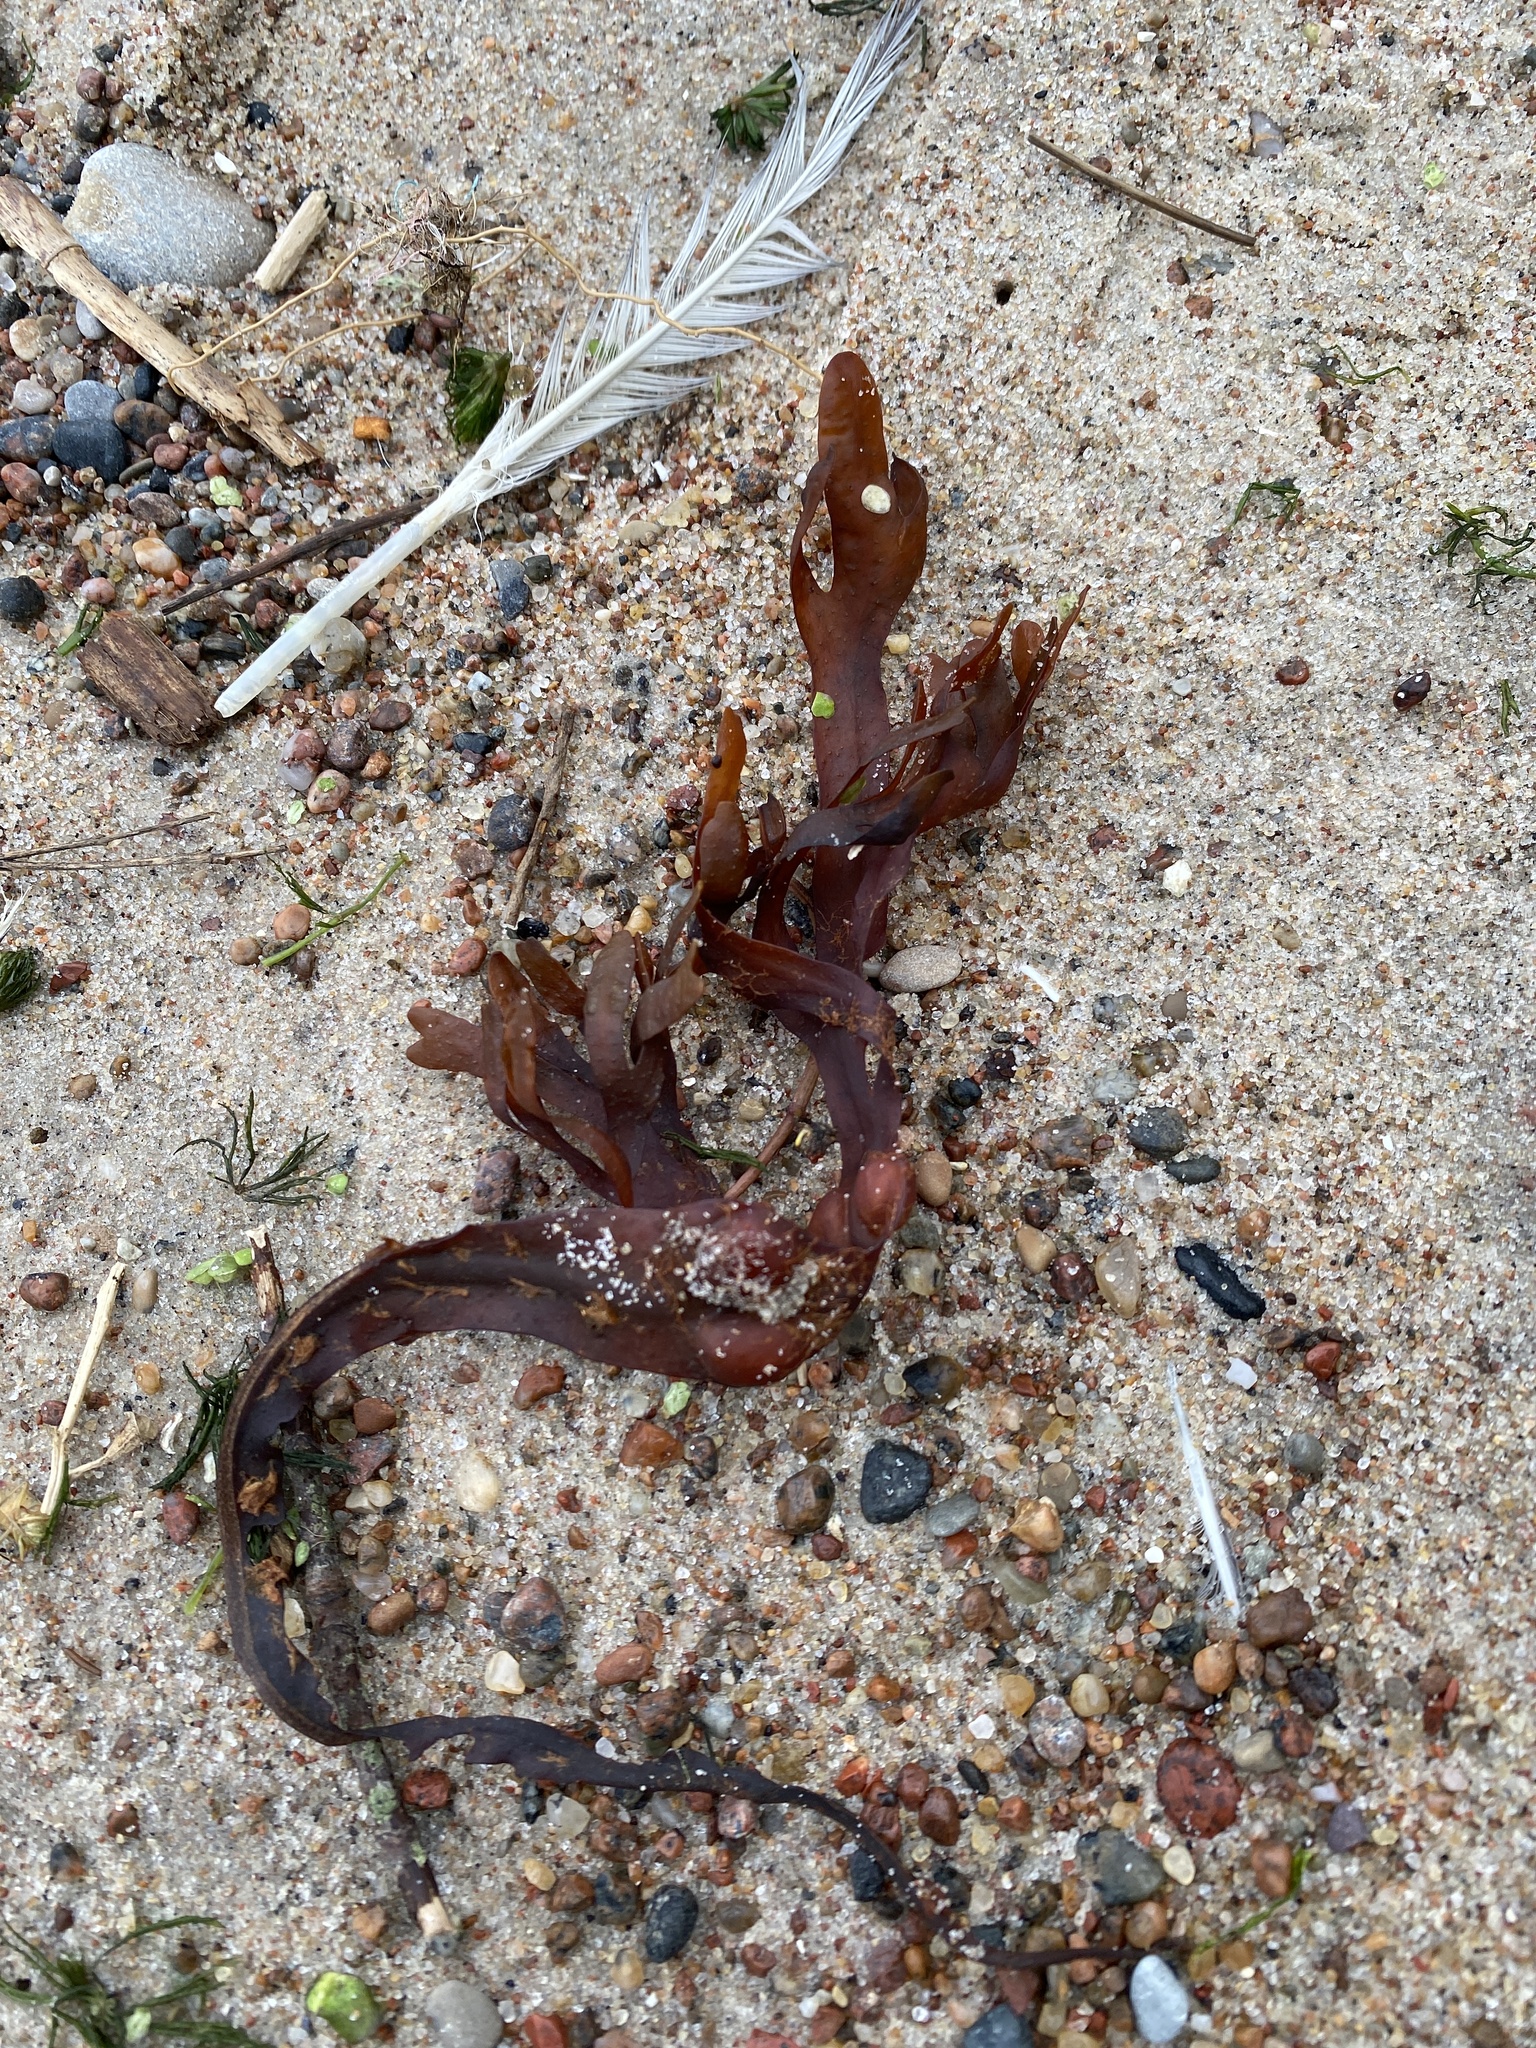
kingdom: Chromista
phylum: Ochrophyta
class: Phaeophyceae
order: Fucales
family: Fucaceae
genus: Fucus
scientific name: Fucus vesiculosus
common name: Bladder wrack
